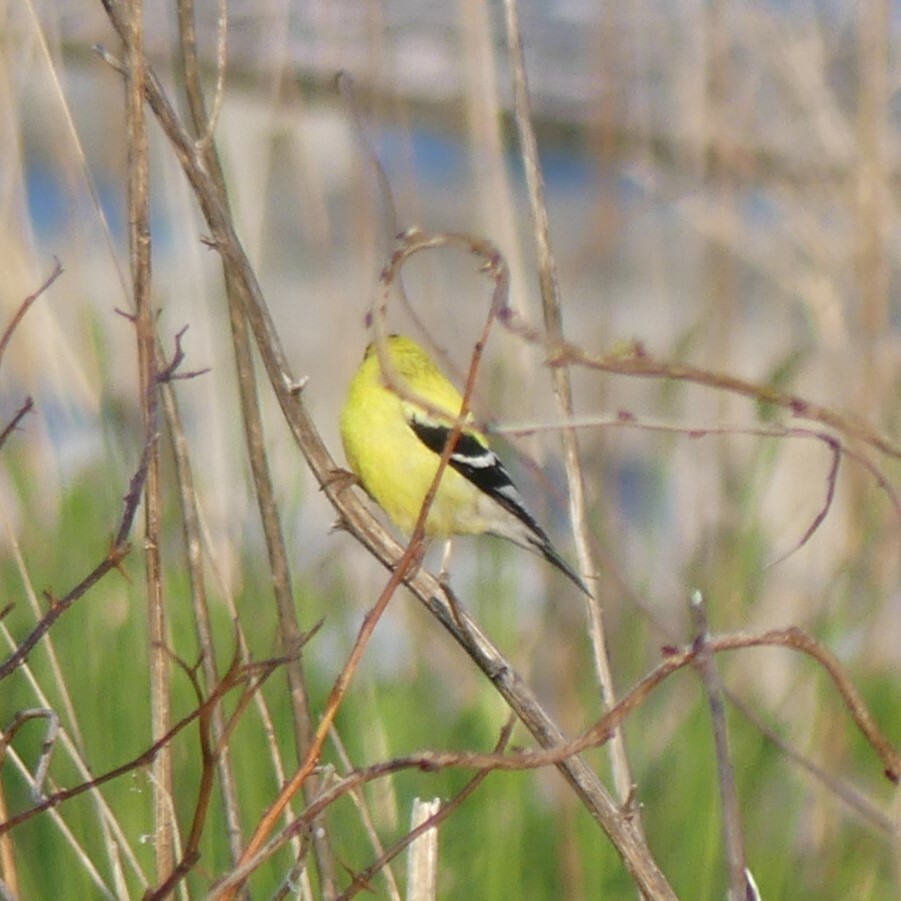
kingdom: Animalia
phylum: Chordata
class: Aves
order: Passeriformes
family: Fringillidae
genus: Spinus
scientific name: Spinus tristis
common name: American goldfinch
